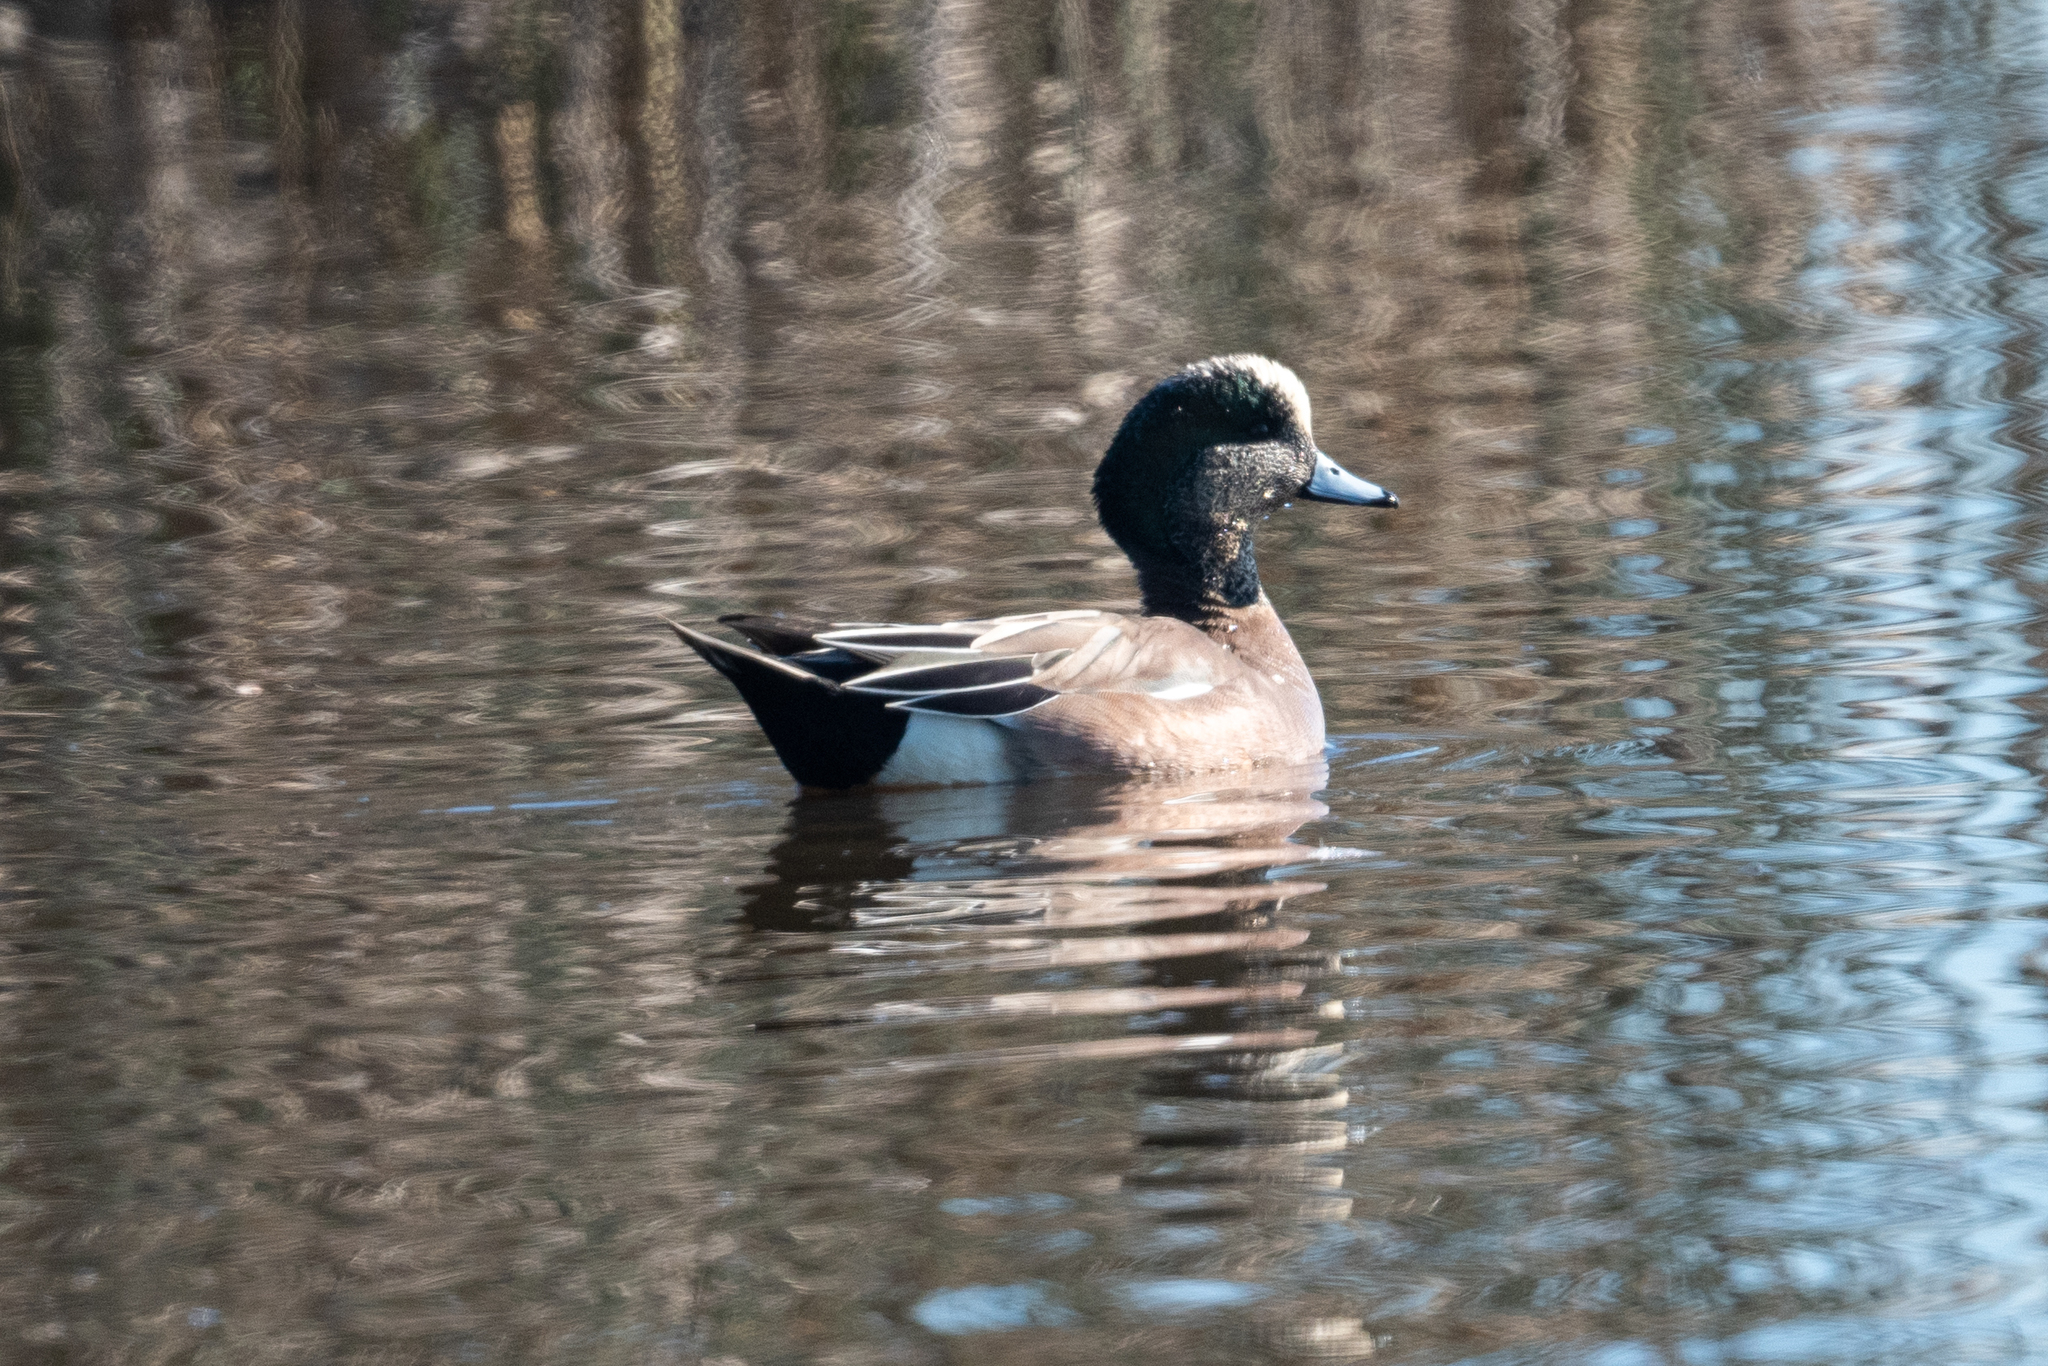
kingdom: Animalia
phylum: Chordata
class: Aves
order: Anseriformes
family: Anatidae
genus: Mareca
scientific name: Mareca americana
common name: American wigeon
